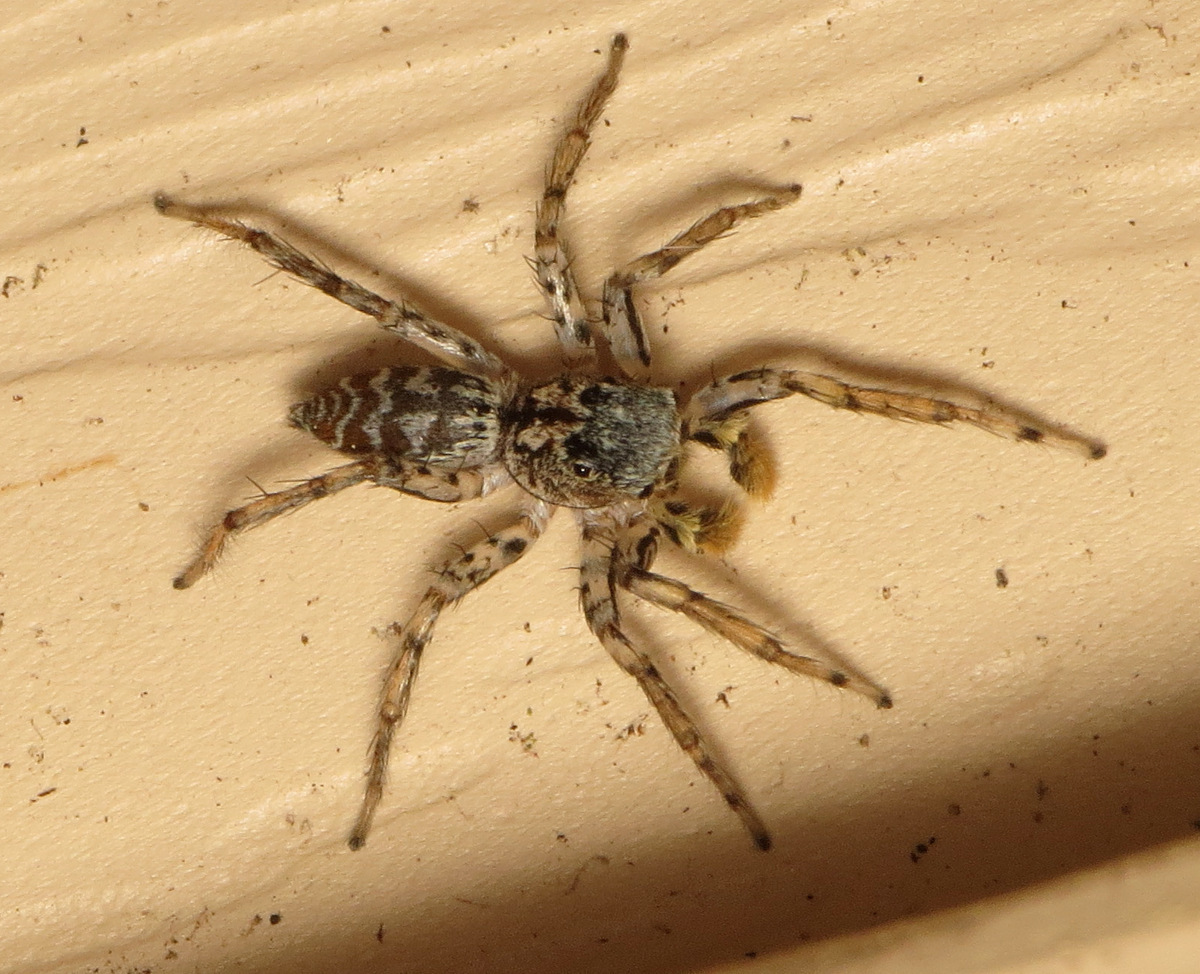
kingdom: Animalia
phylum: Arthropoda
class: Arachnida
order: Araneae
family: Salticidae
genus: Maevia
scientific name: Maevia inclemens
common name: Dimorphic jumper
